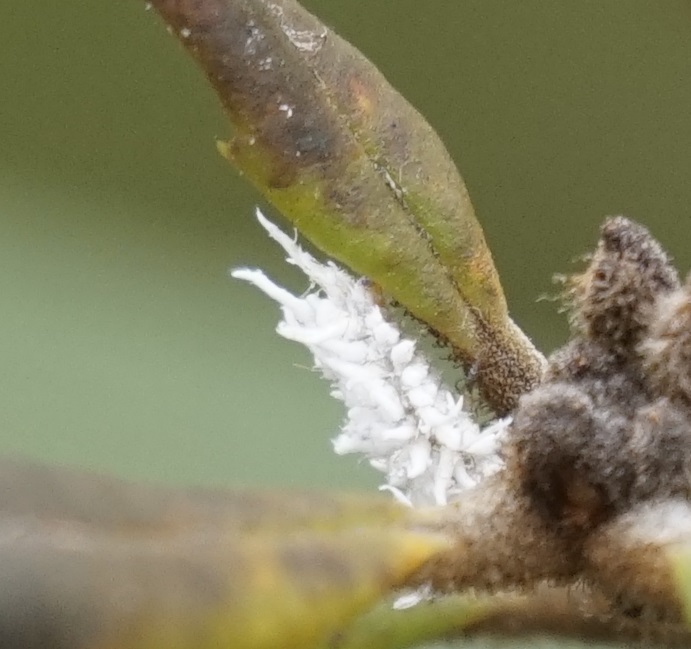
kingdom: Animalia
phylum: Arthropoda
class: Insecta
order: Coleoptera
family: Coccinellidae
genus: Cryptolaemus
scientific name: Cryptolaemus montrouzieri
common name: Mealybug destroyer
